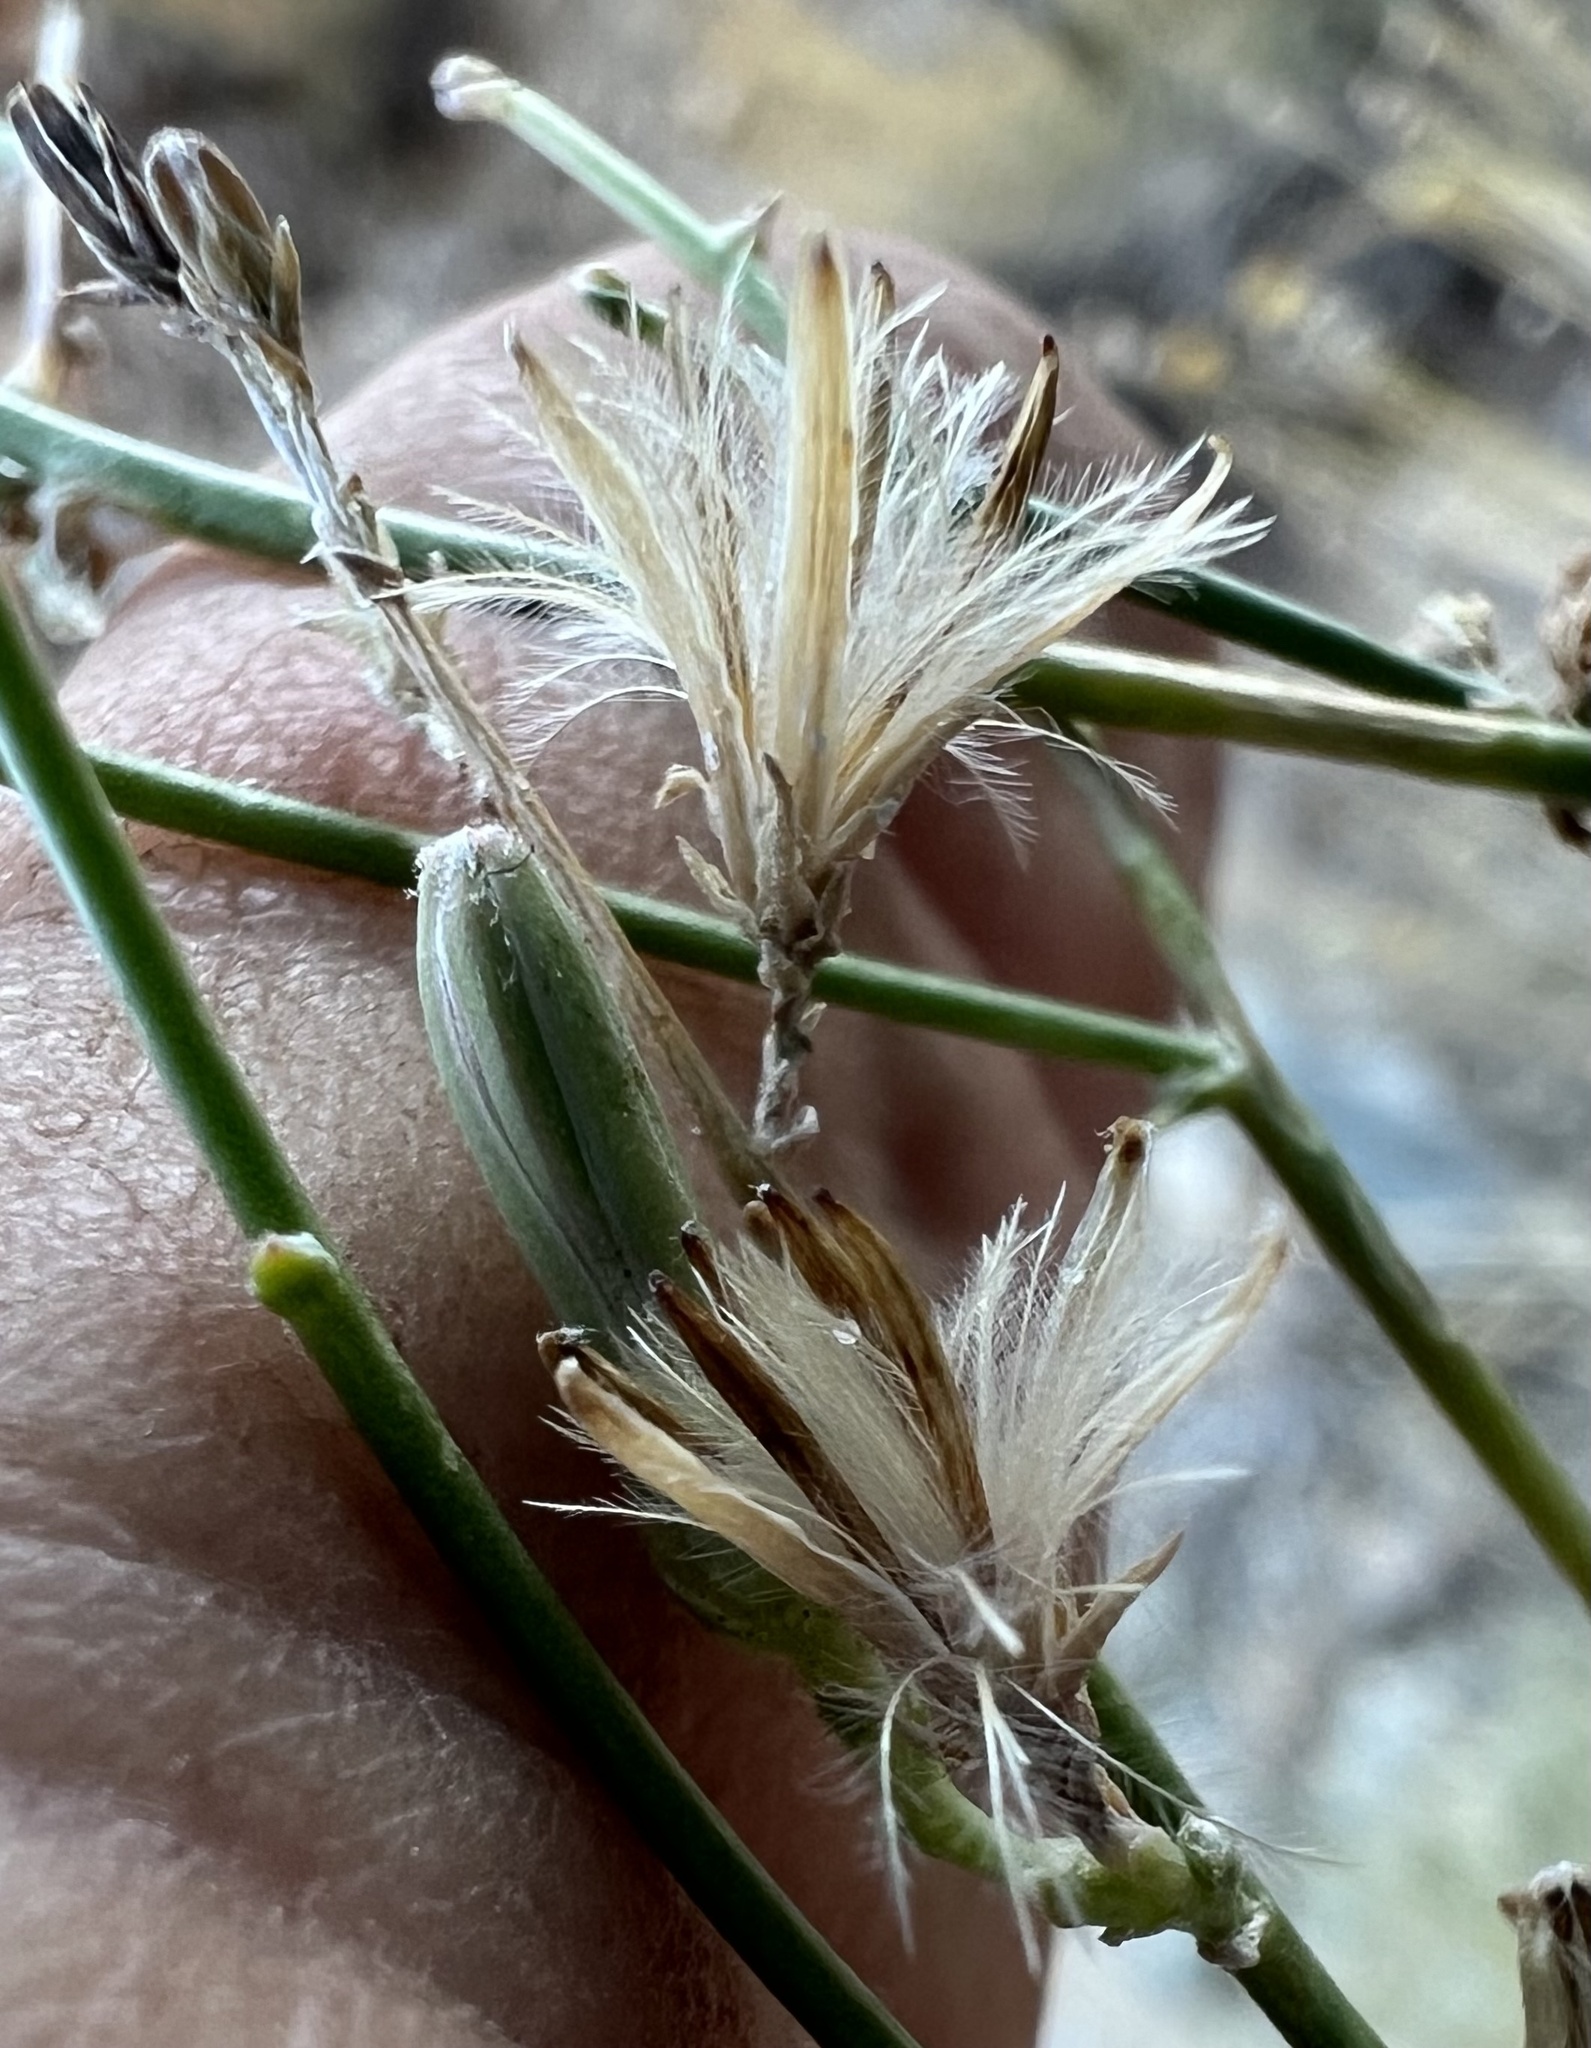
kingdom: Plantae
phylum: Tracheophyta
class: Magnoliopsida
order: Asterales
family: Asteraceae
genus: Stephanomeria
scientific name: Stephanomeria pauciflora
